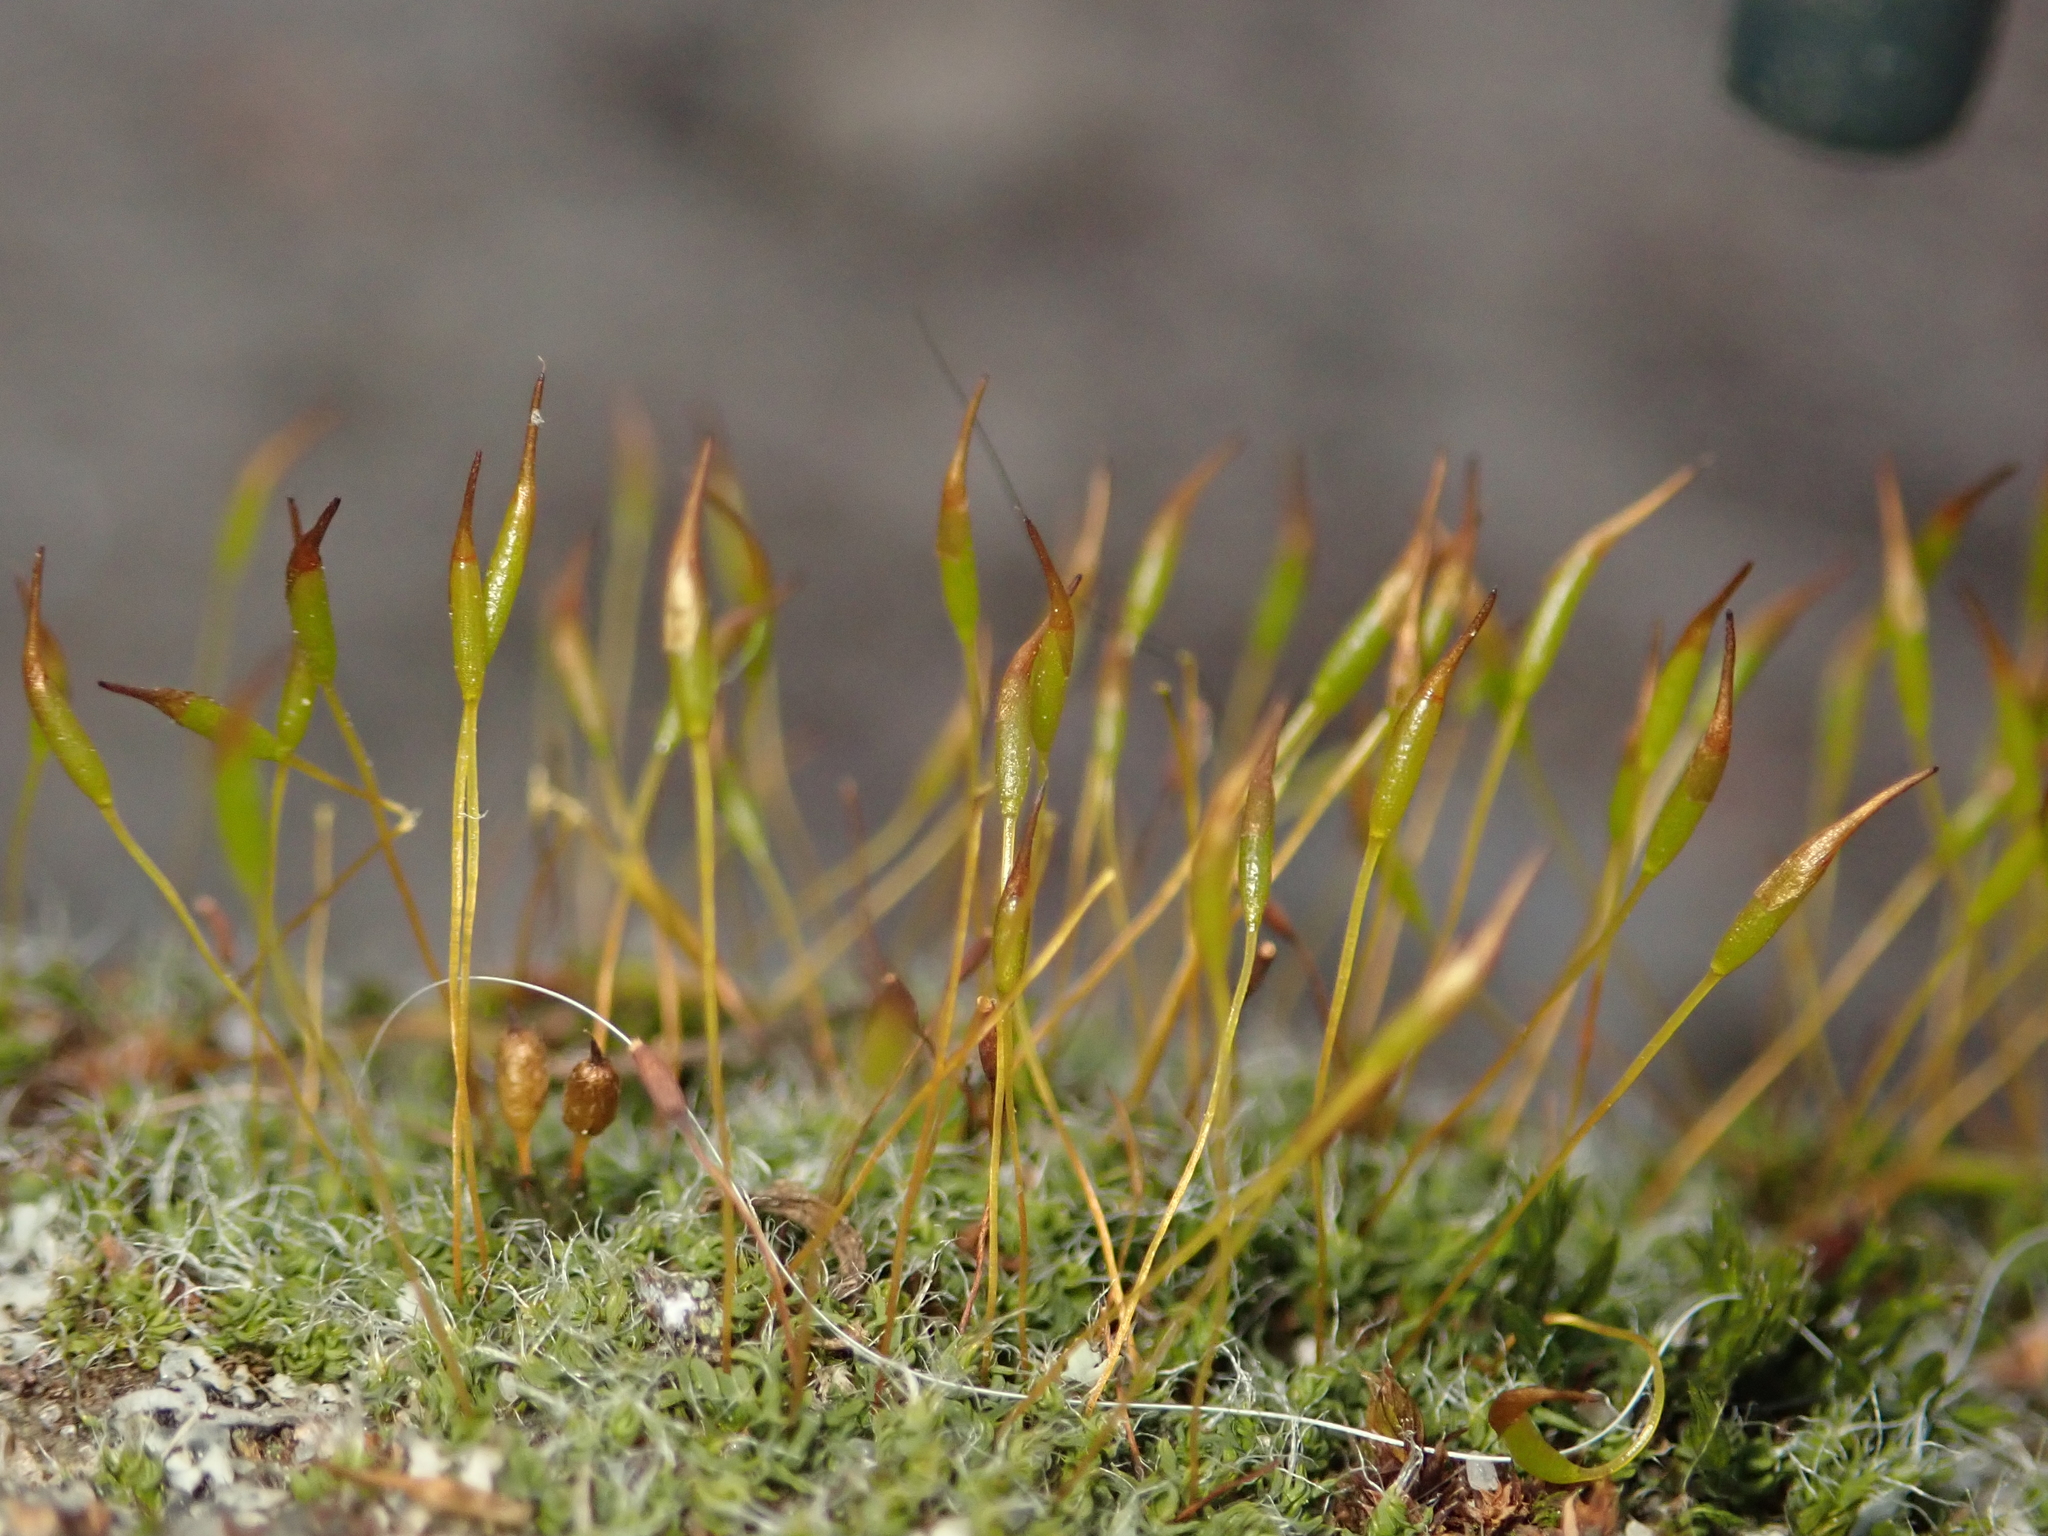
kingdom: Plantae
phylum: Bryophyta
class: Bryopsida
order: Pottiales
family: Pottiaceae
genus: Tortula
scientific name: Tortula muralis
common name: Wall screw-moss
